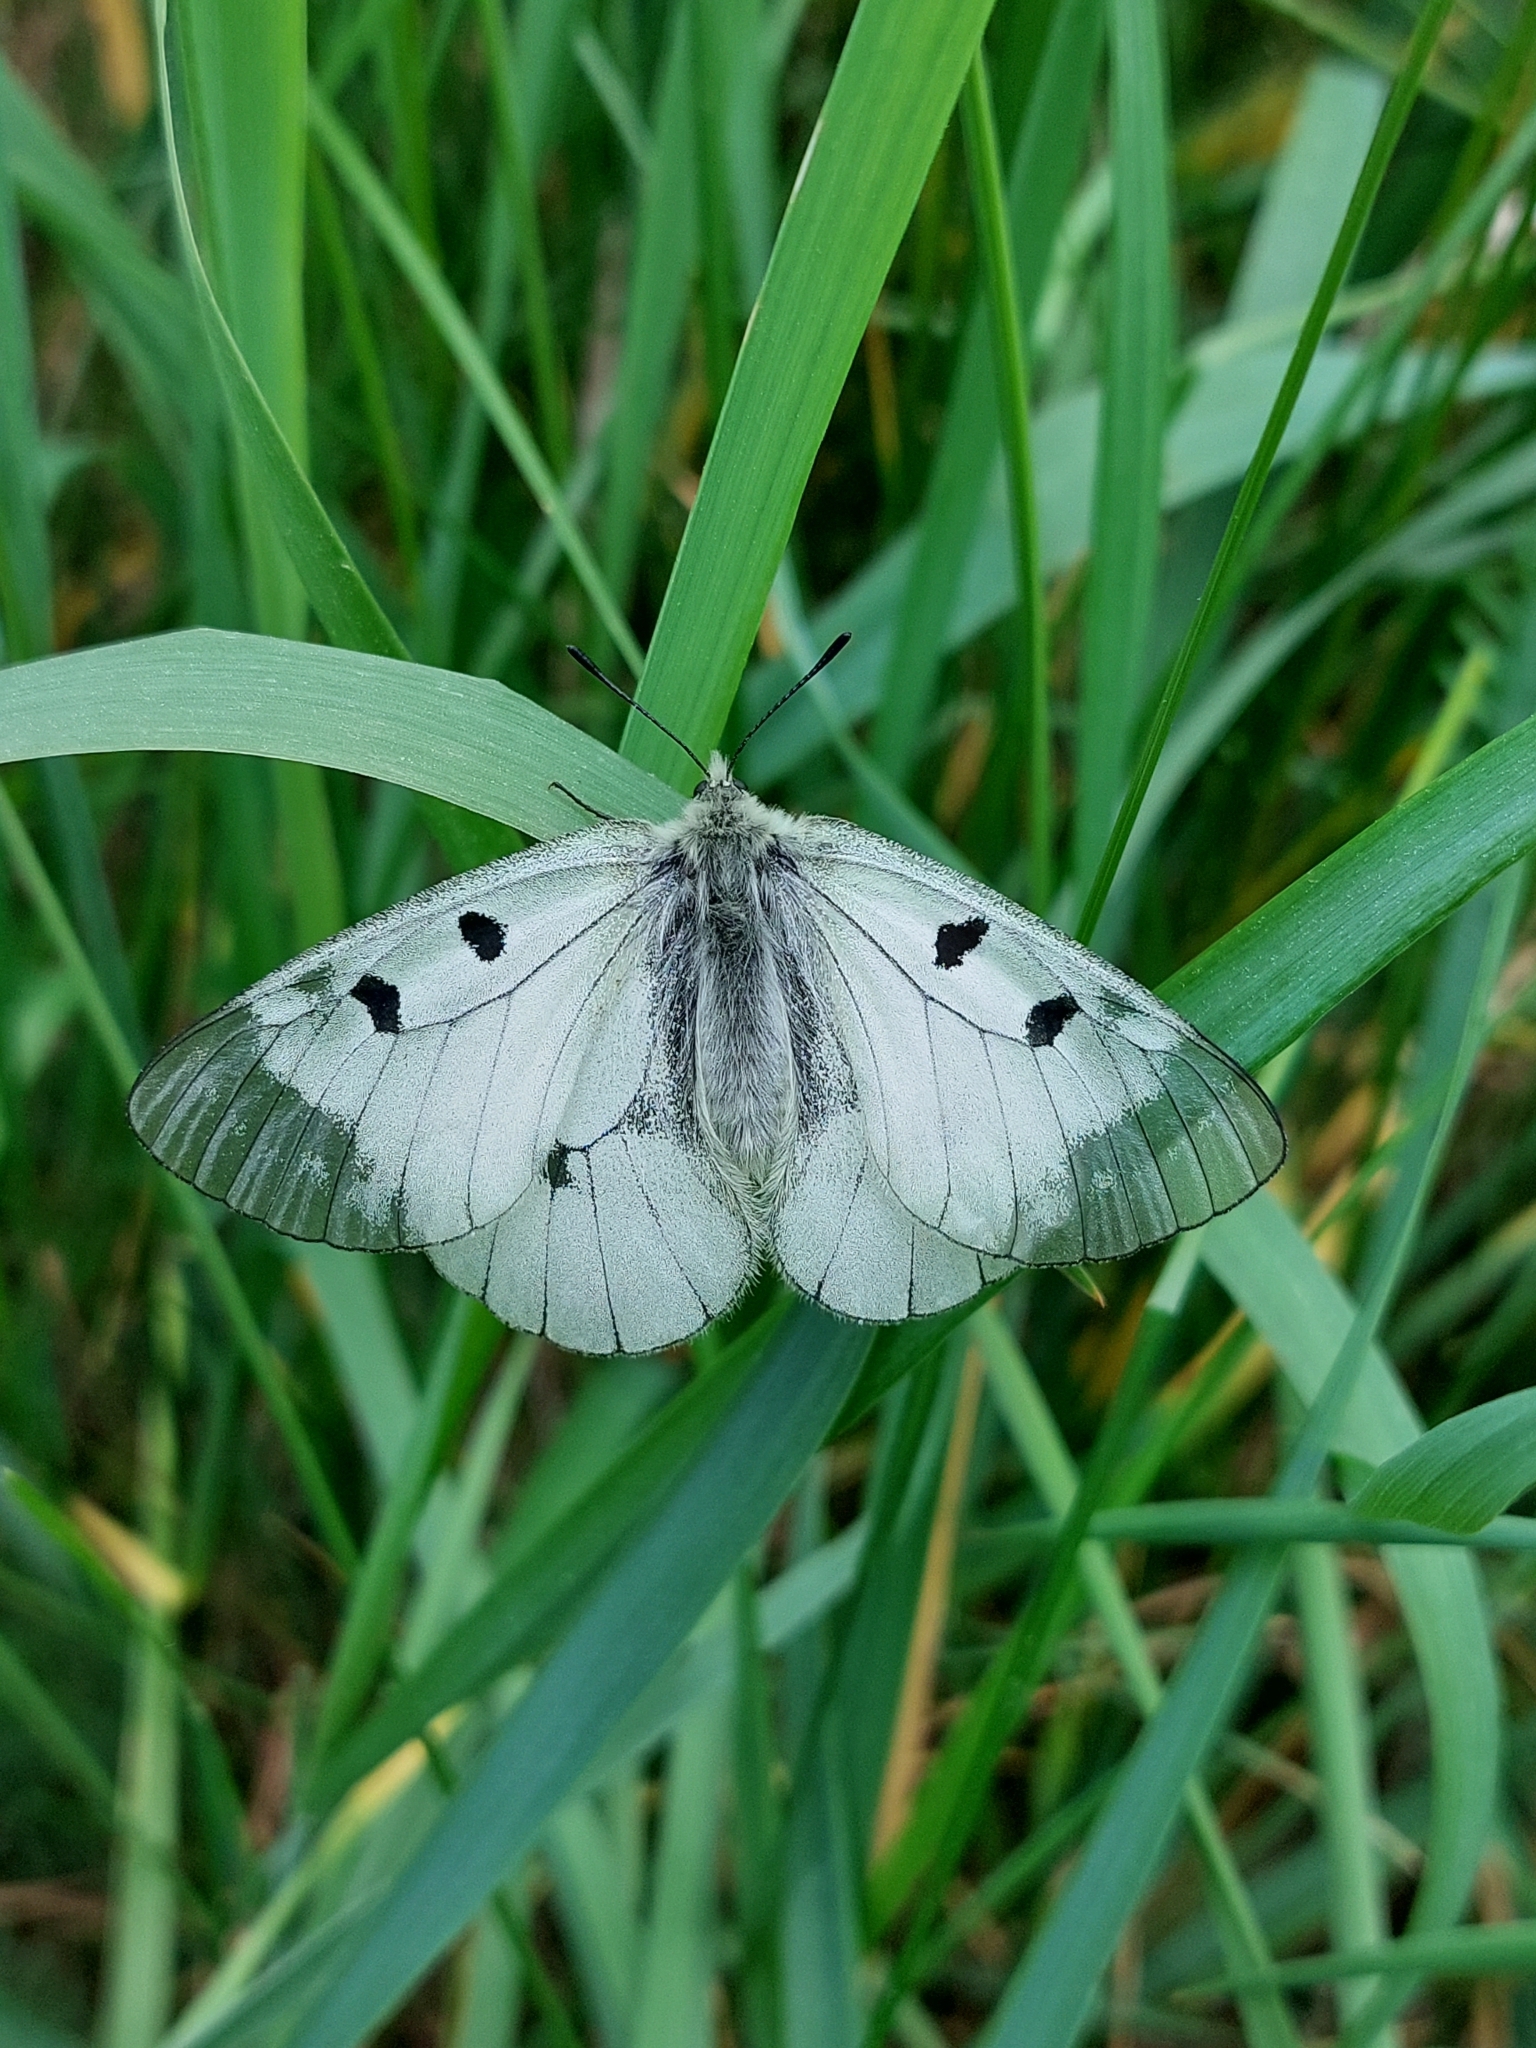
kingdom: Animalia
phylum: Arthropoda
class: Insecta
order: Lepidoptera
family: Papilionidae
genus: Parnassius
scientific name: Parnassius mnemosyne
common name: Clouded apollo
